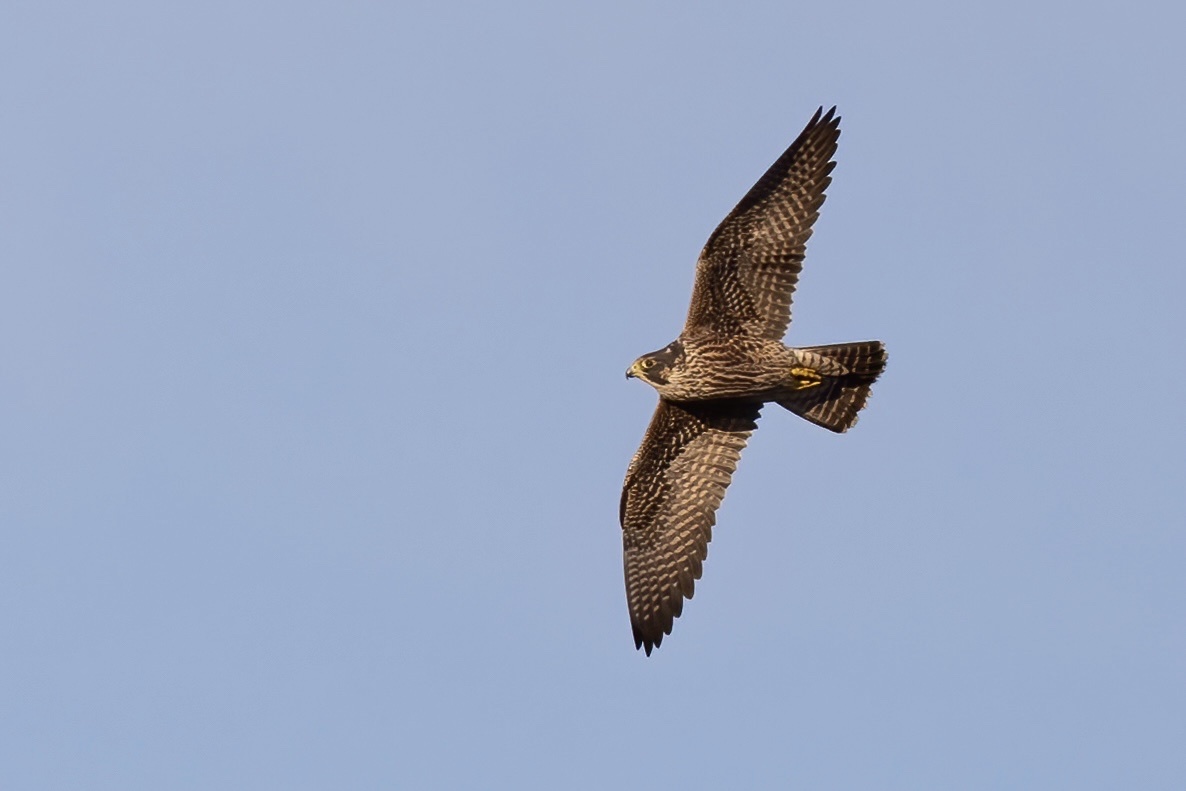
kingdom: Animalia
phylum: Chordata
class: Aves
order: Falconiformes
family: Falconidae
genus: Falco
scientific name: Falco peregrinus
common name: Peregrine falcon
